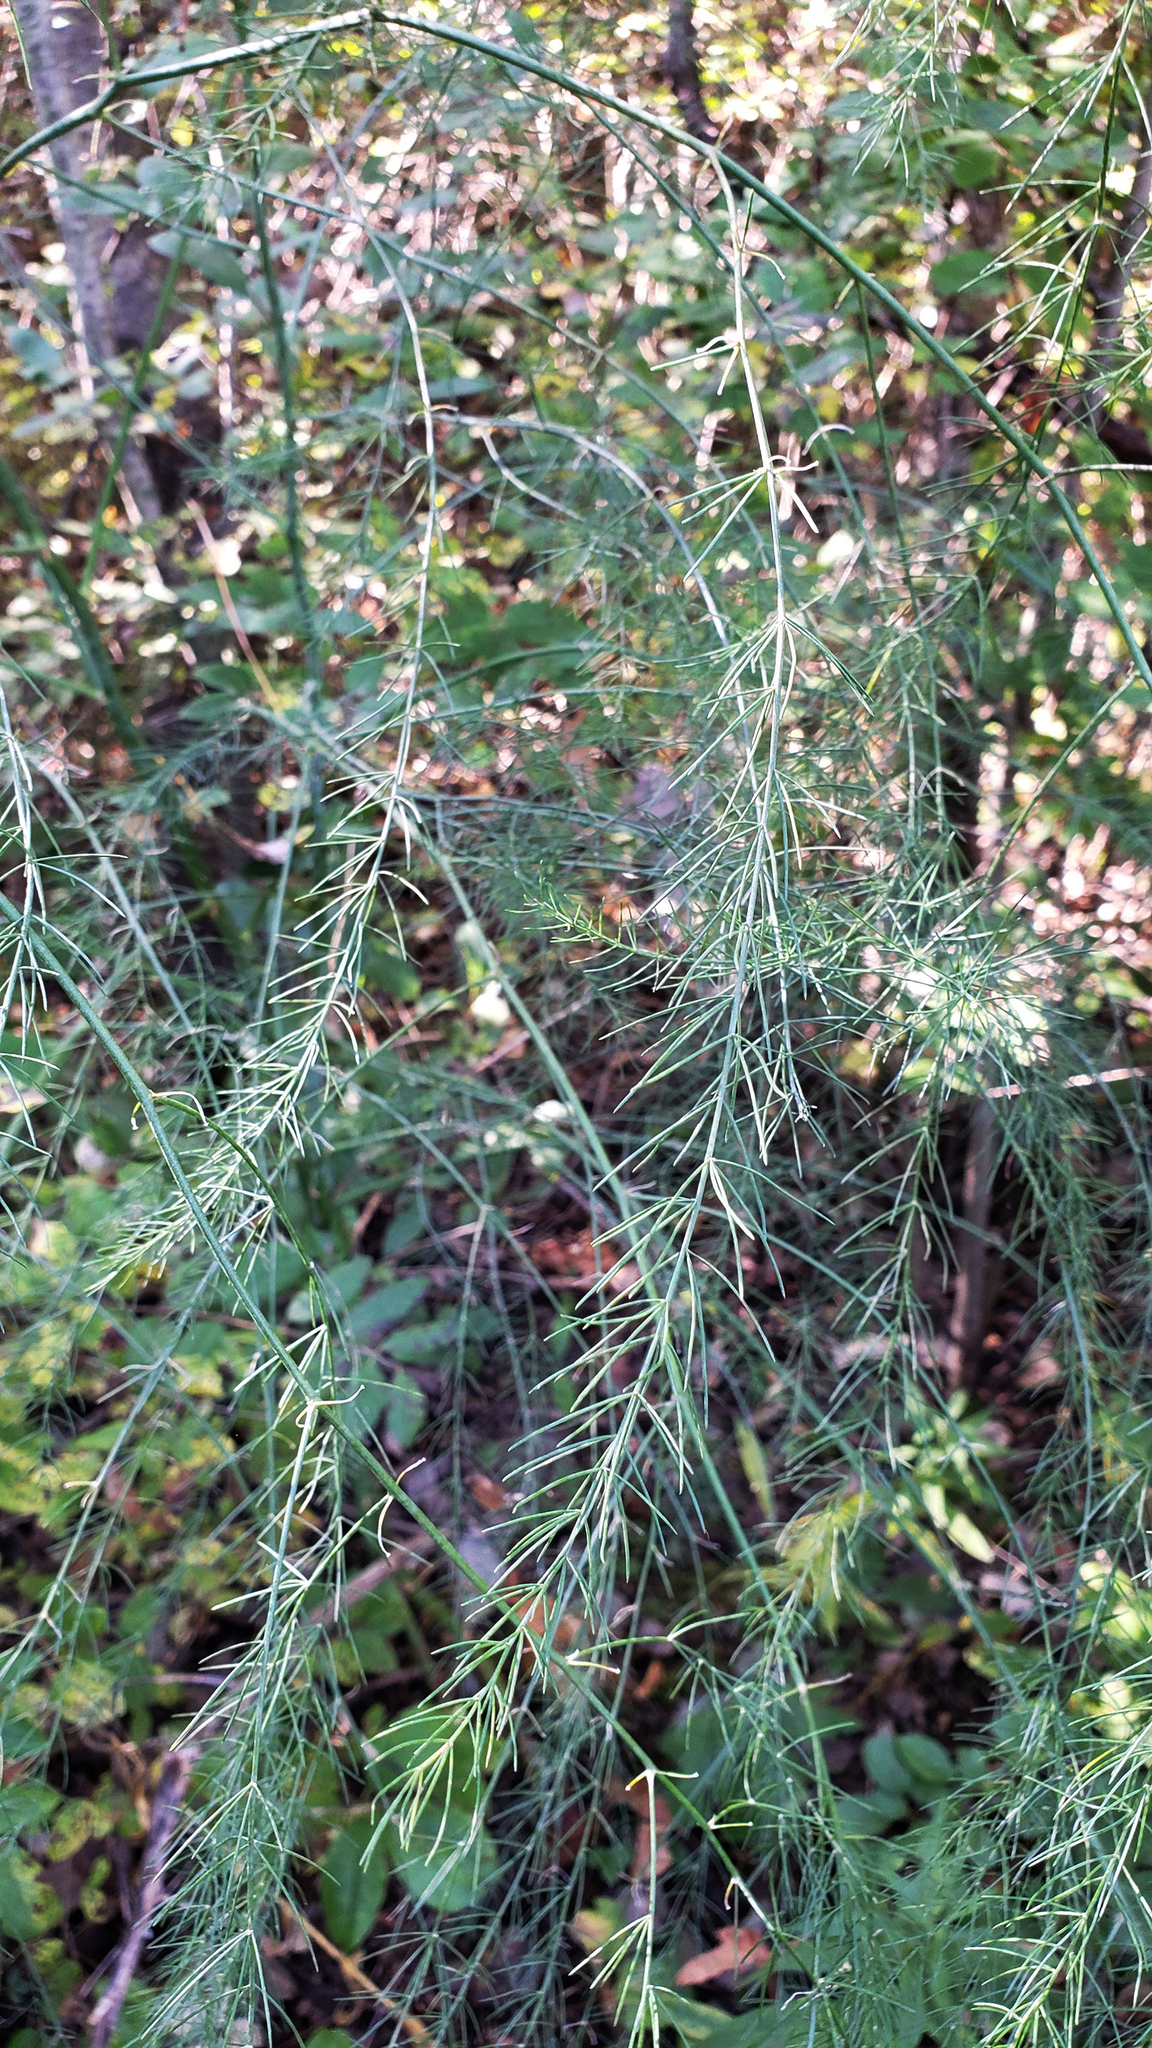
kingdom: Plantae
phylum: Tracheophyta
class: Liliopsida
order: Asparagales
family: Asparagaceae
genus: Asparagus
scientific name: Asparagus officinalis
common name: Garden asparagus
